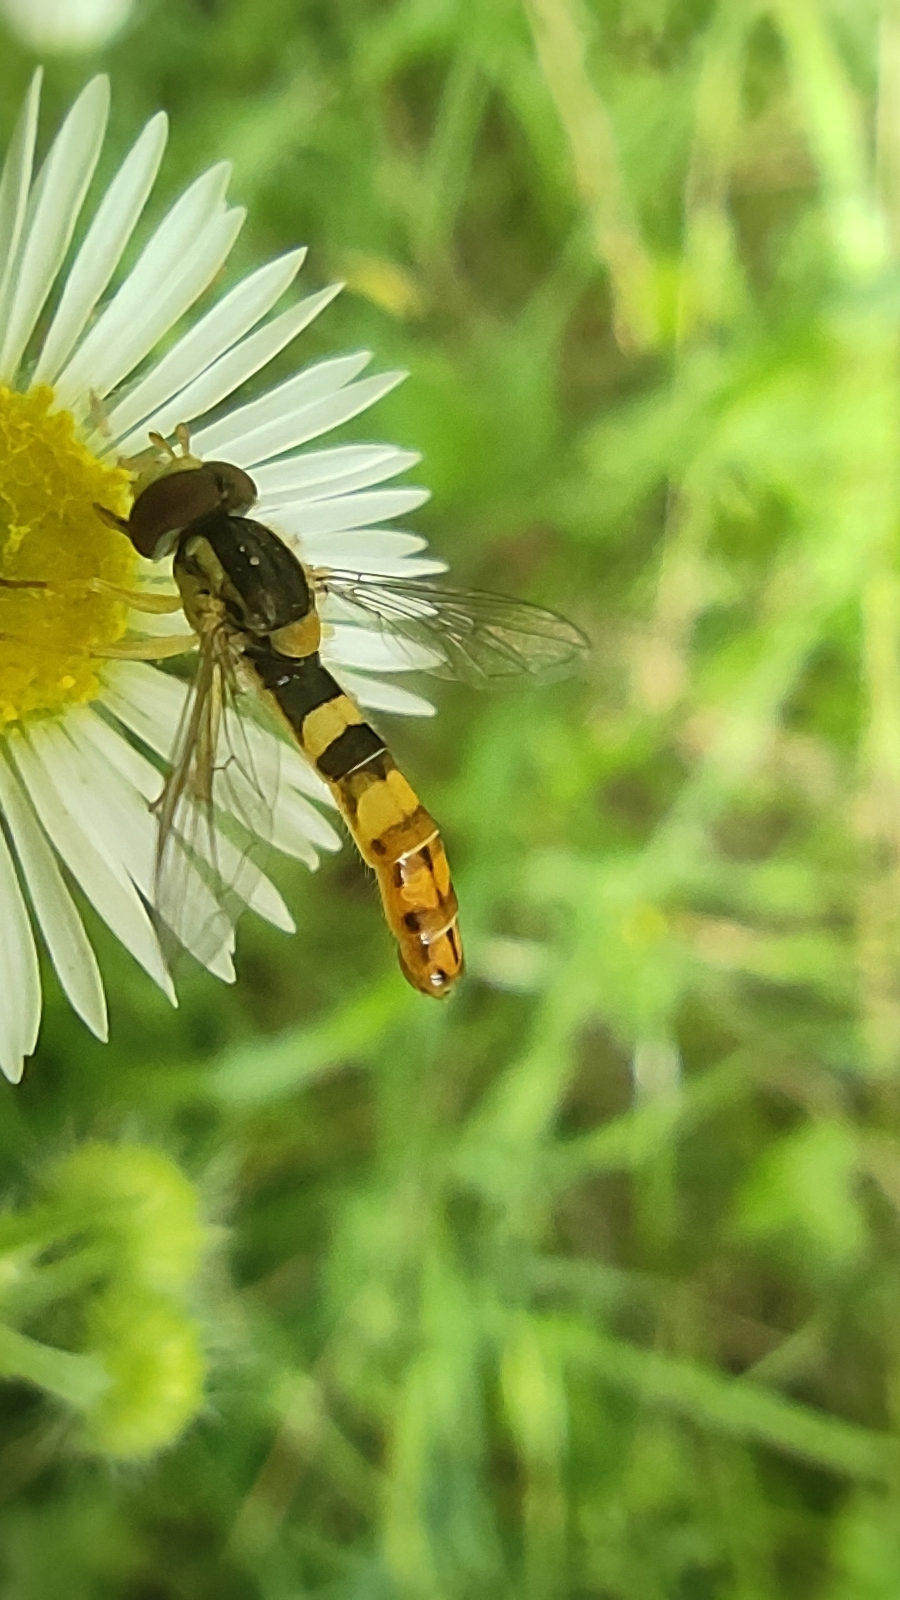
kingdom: Animalia
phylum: Arthropoda
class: Insecta
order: Diptera
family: Syrphidae
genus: Sphaerophoria
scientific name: Sphaerophoria scripta
